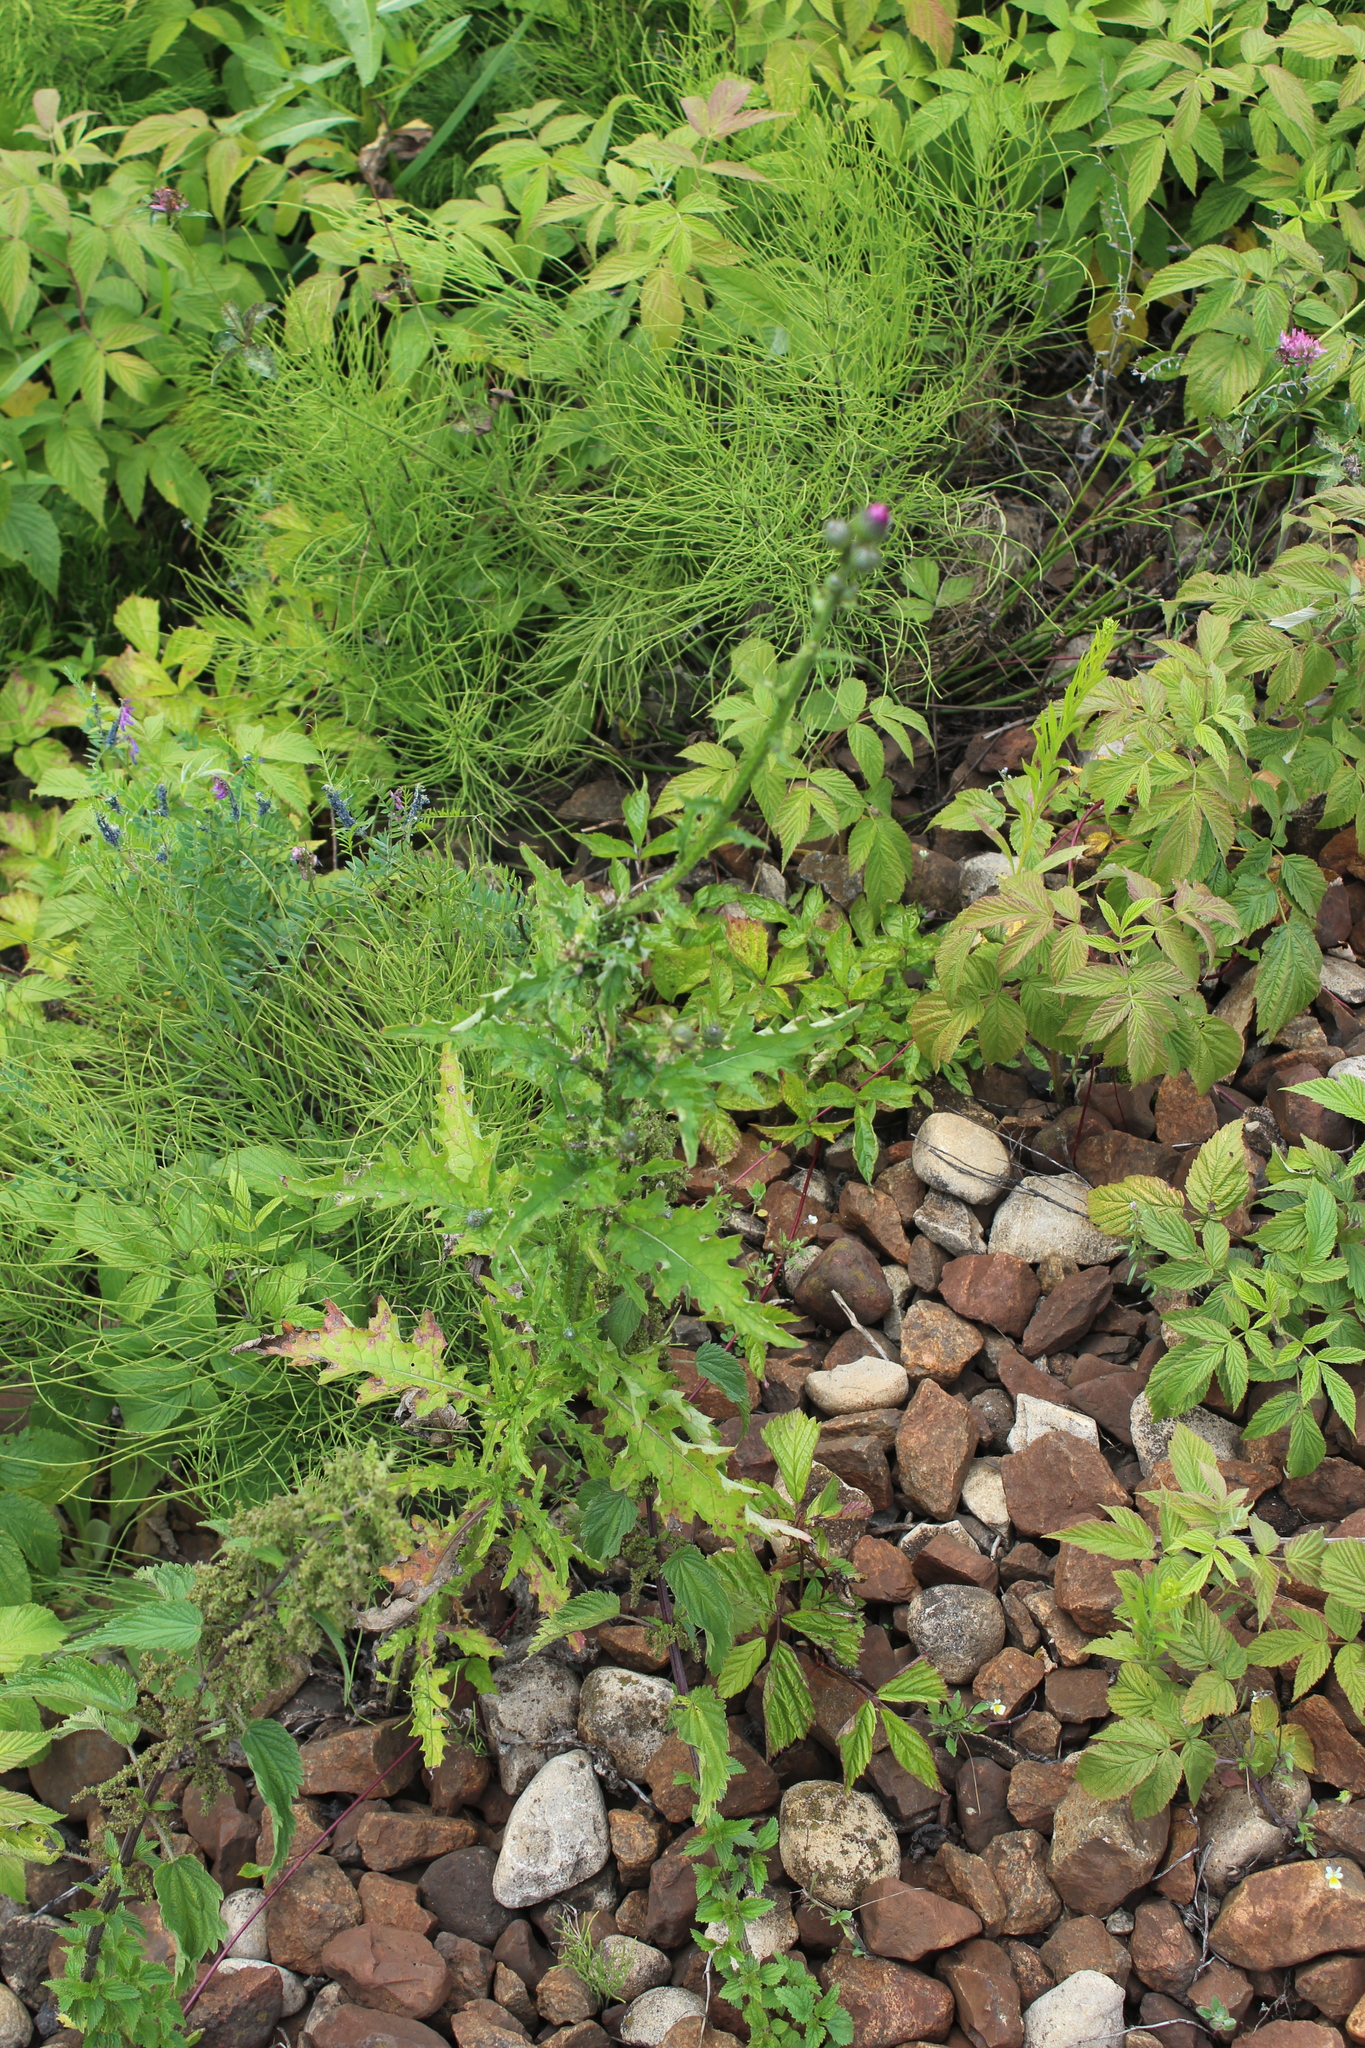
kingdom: Plantae
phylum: Tracheophyta
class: Magnoliopsida
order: Asterales
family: Asteraceae
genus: Carduus
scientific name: Carduus crispus
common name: Welted thistle
